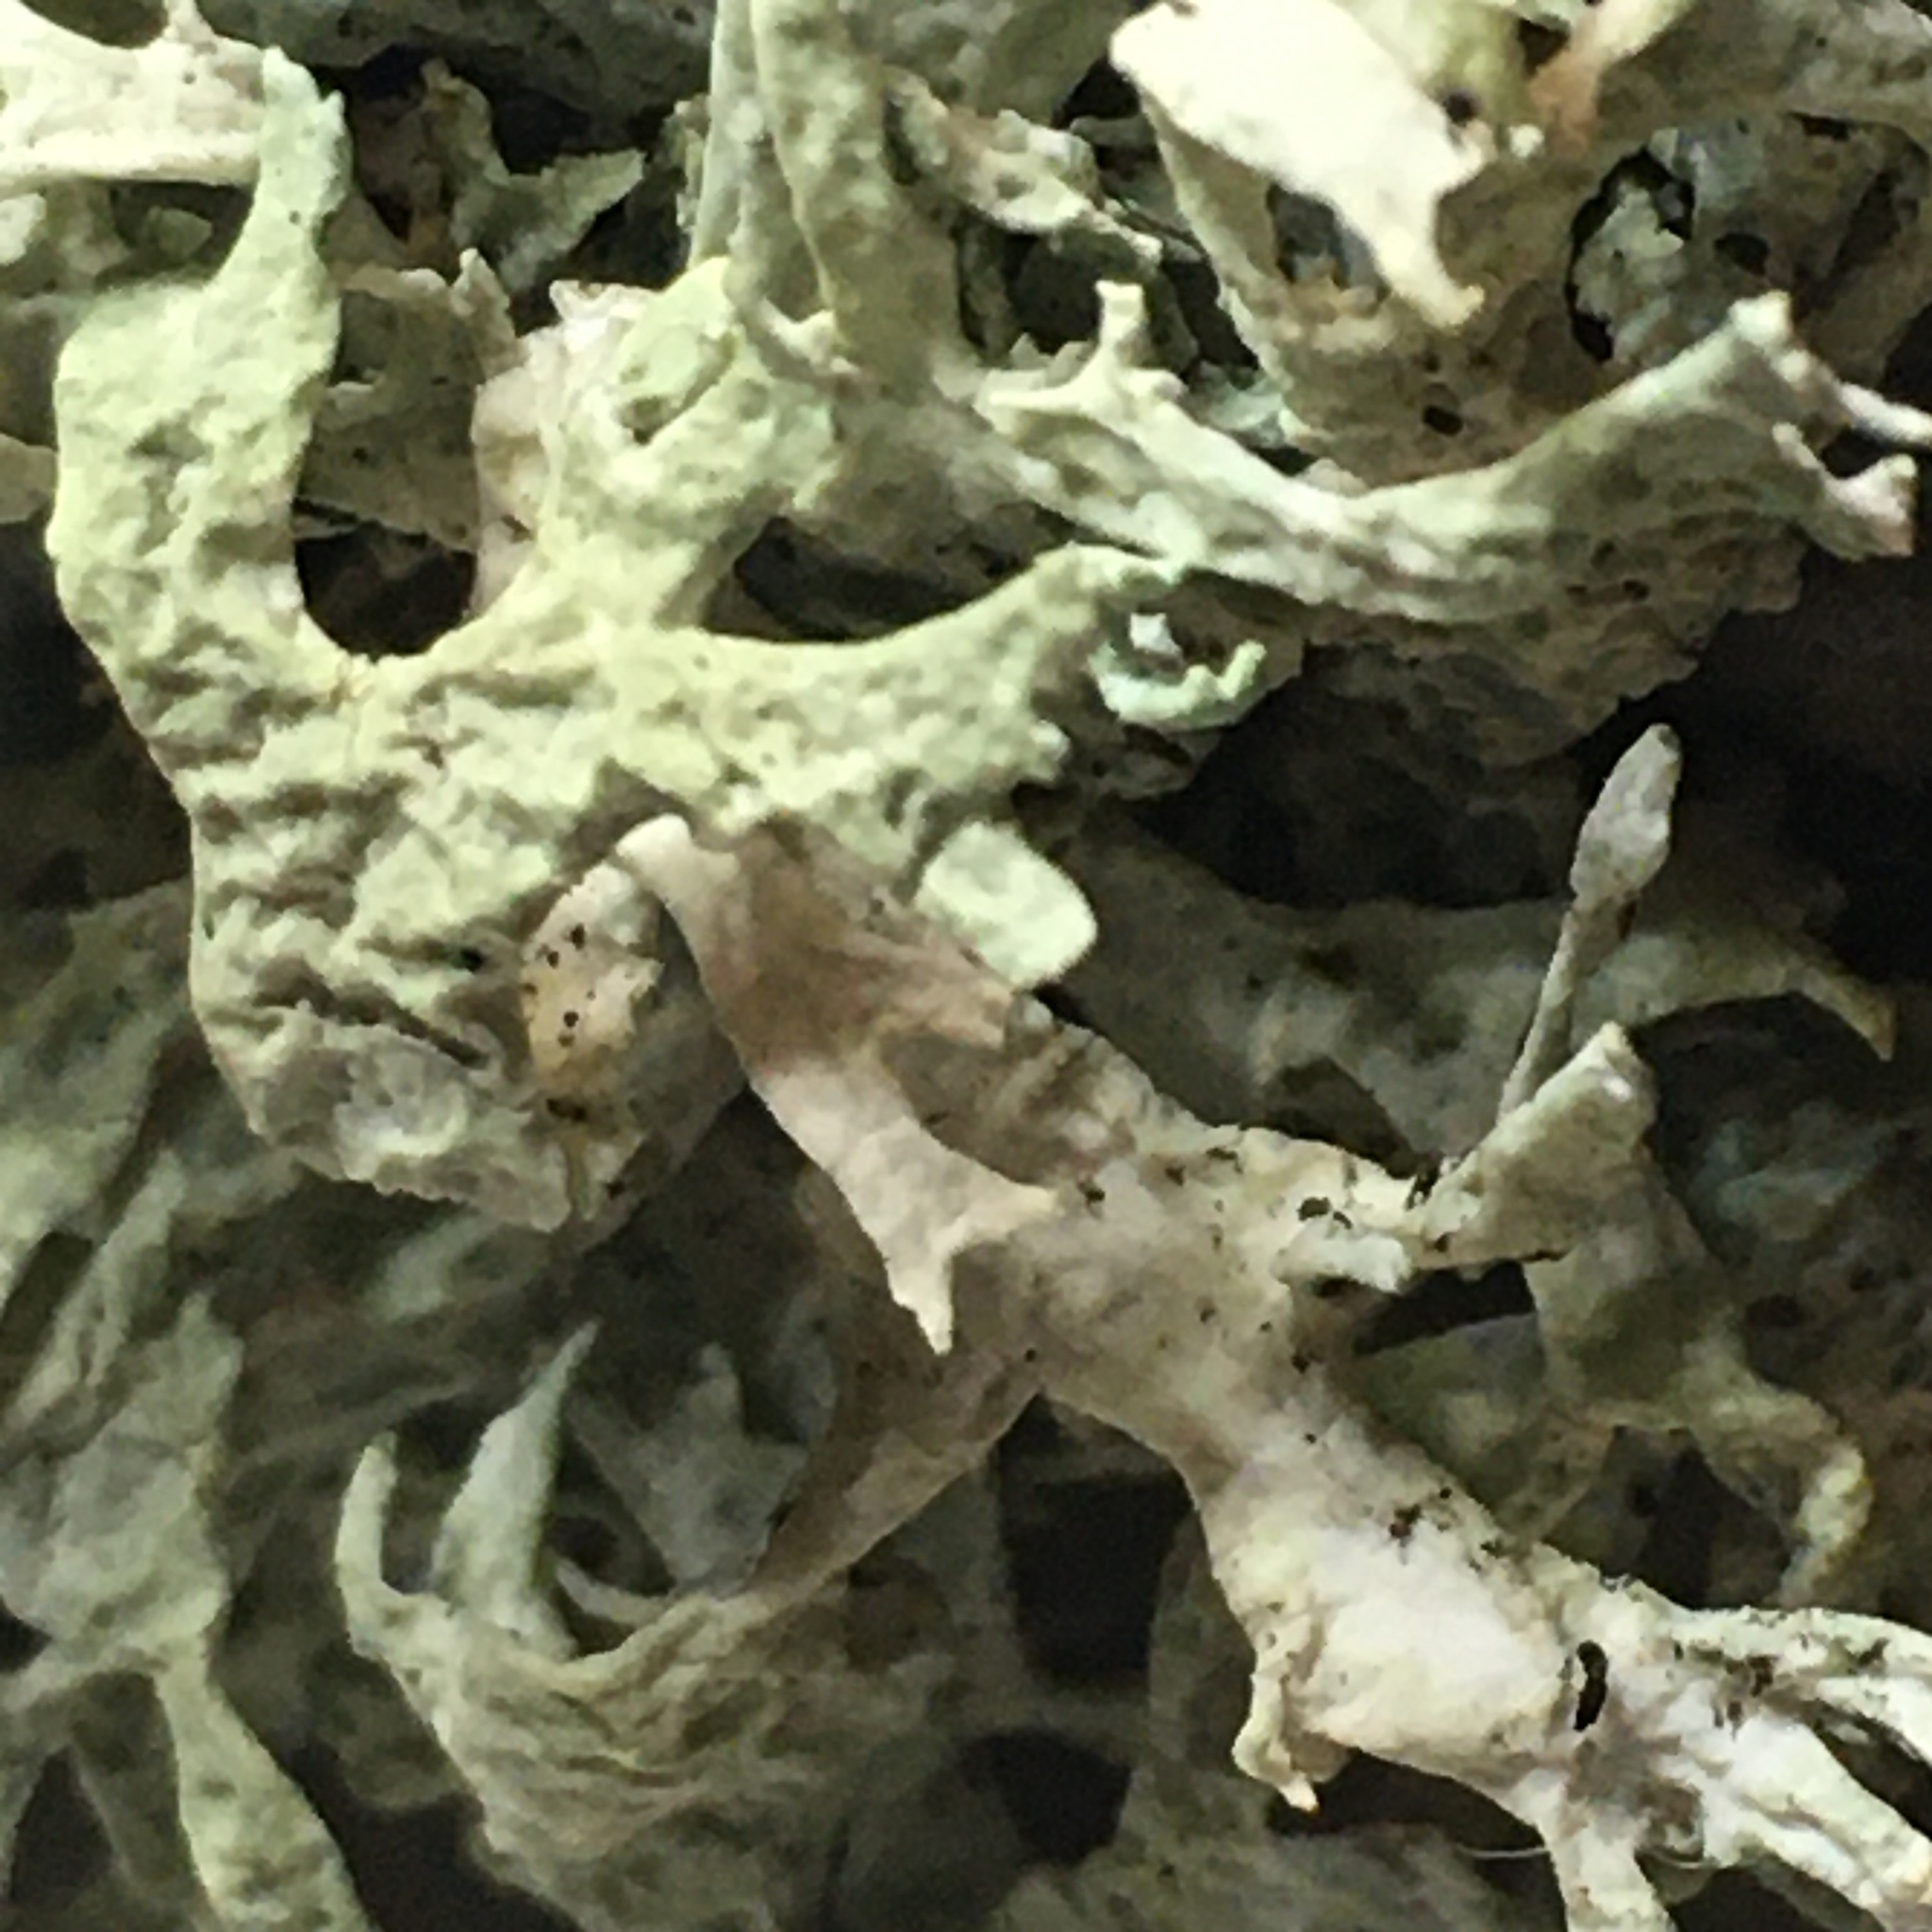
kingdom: Fungi
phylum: Ascomycota
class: Lecanoromycetes
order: Lecanorales
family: Parmeliaceae
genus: Evernia
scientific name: Evernia prunastri
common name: Oak moss
